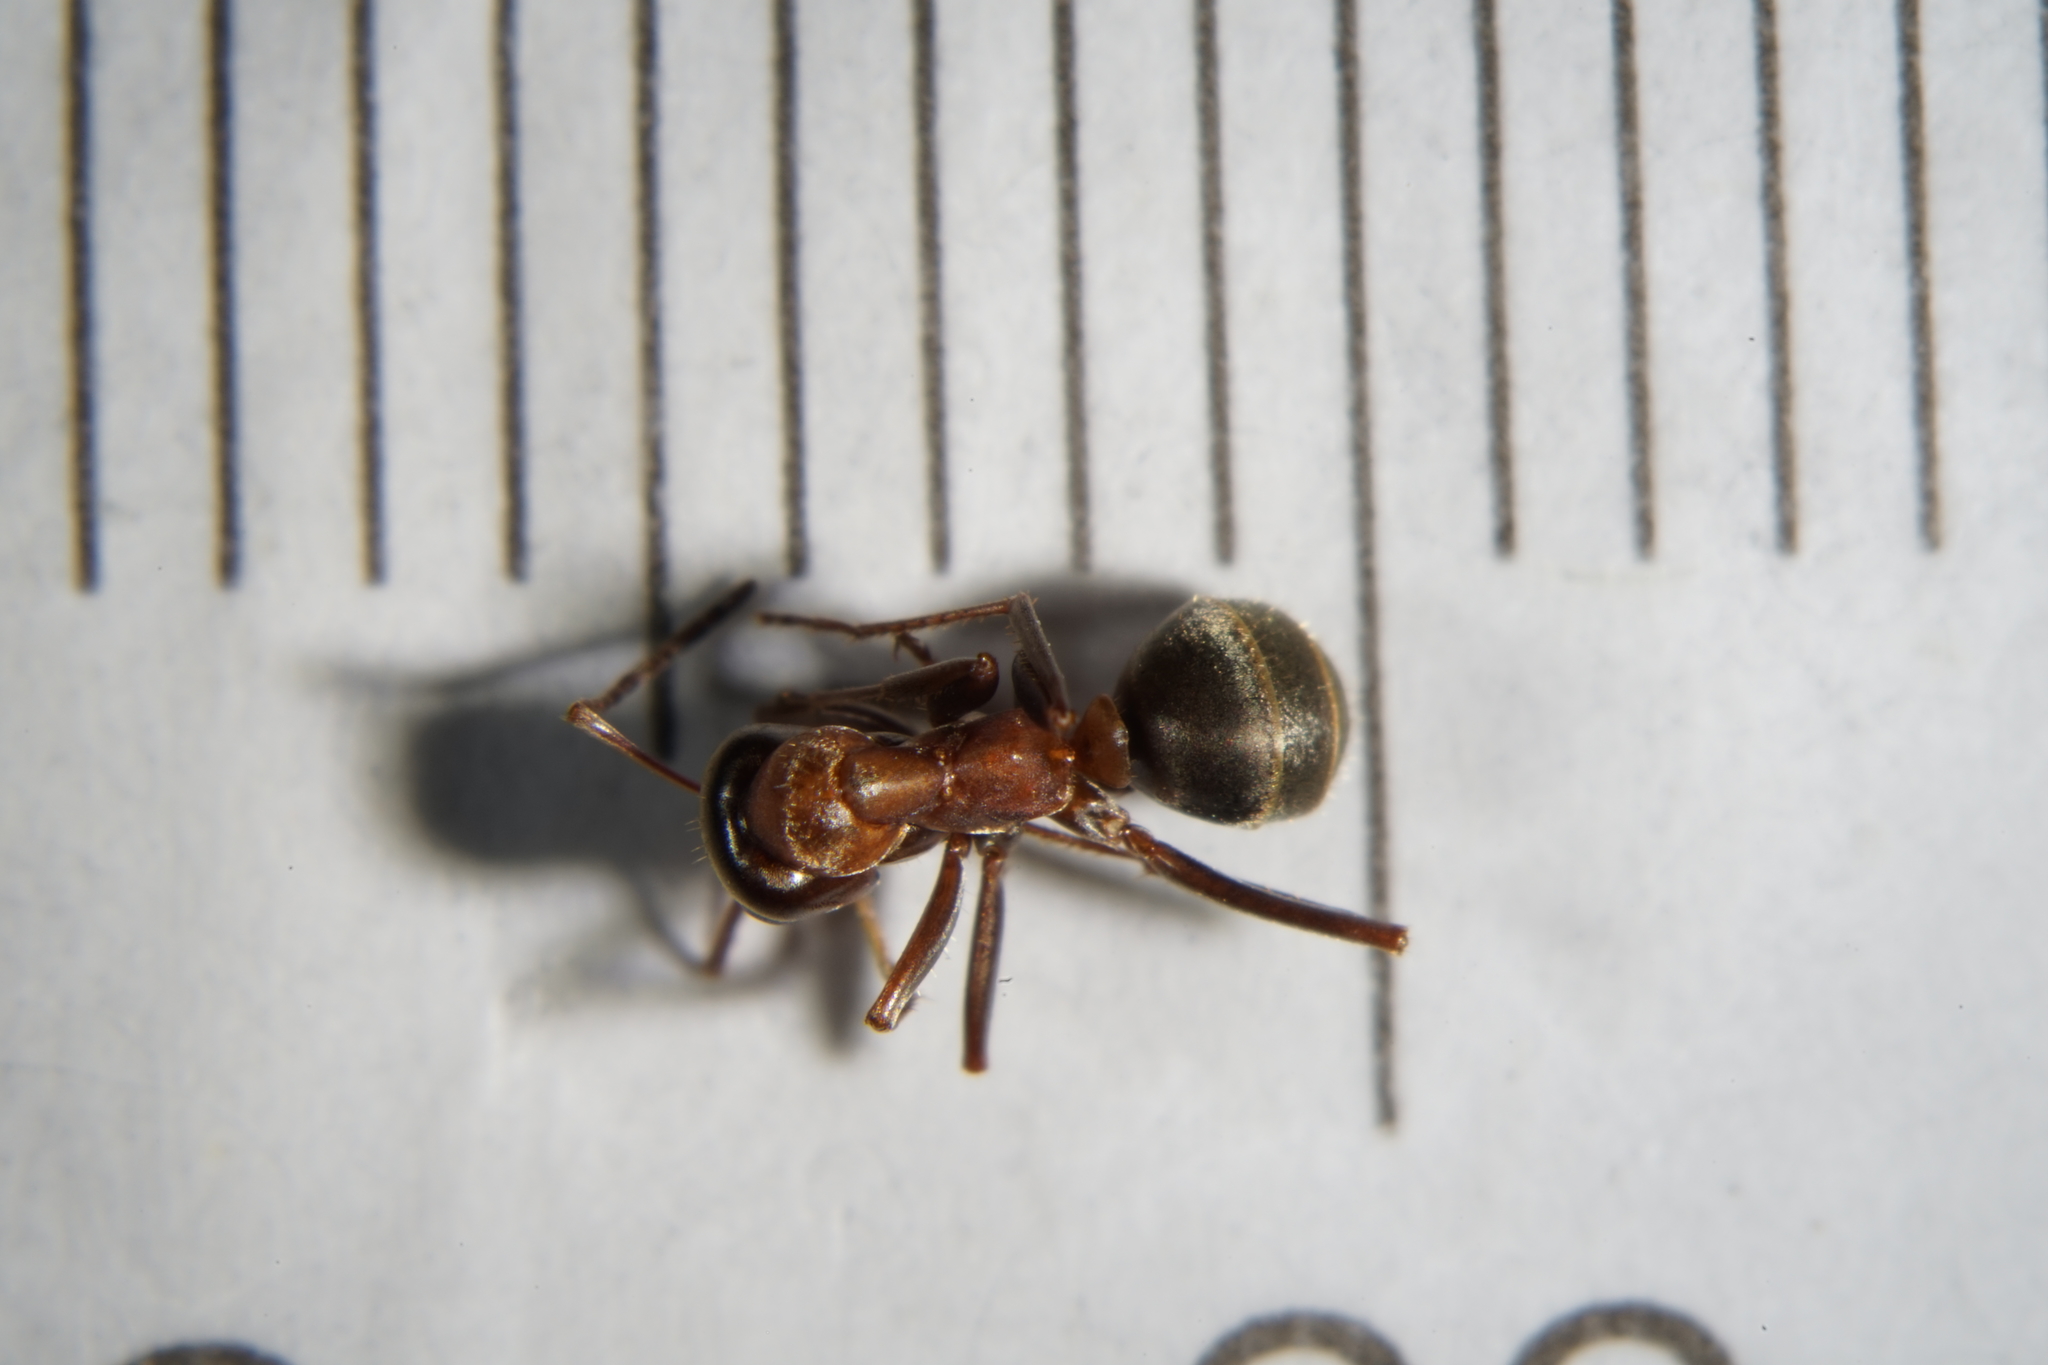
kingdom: Animalia
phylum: Arthropoda
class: Insecta
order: Hymenoptera
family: Formicidae
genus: Formica
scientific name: Formica rufibarbis
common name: Red barbed ant
